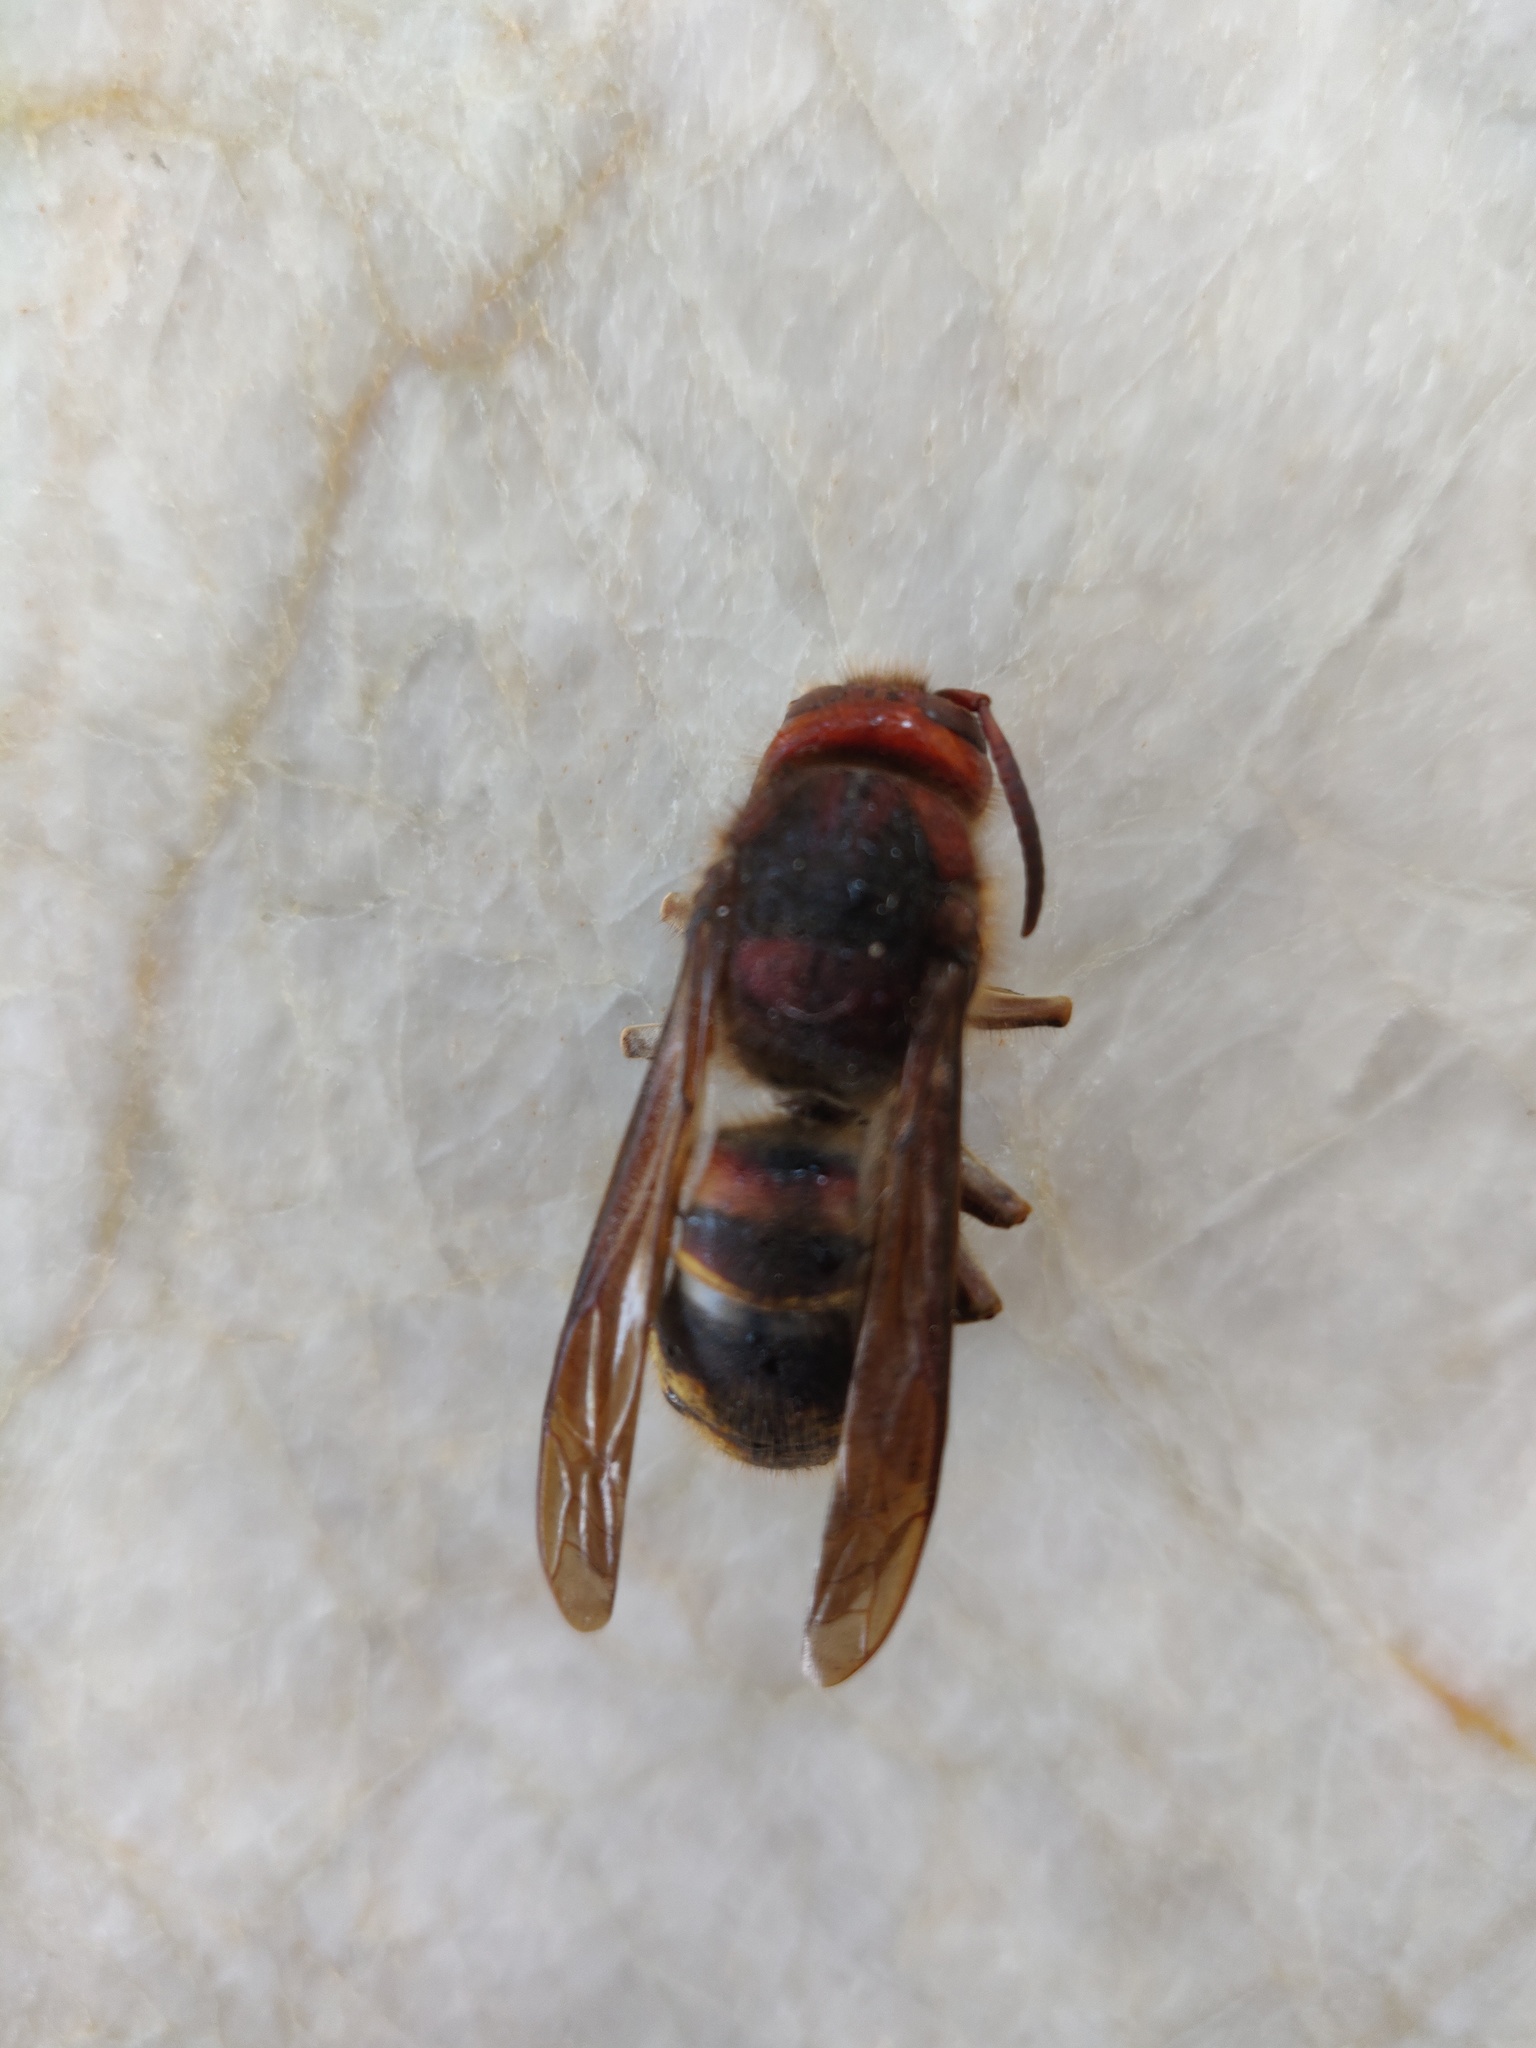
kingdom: Animalia
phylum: Arthropoda
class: Insecta
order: Hymenoptera
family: Vespidae
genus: Vespa
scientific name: Vespa crabro
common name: Hornet
